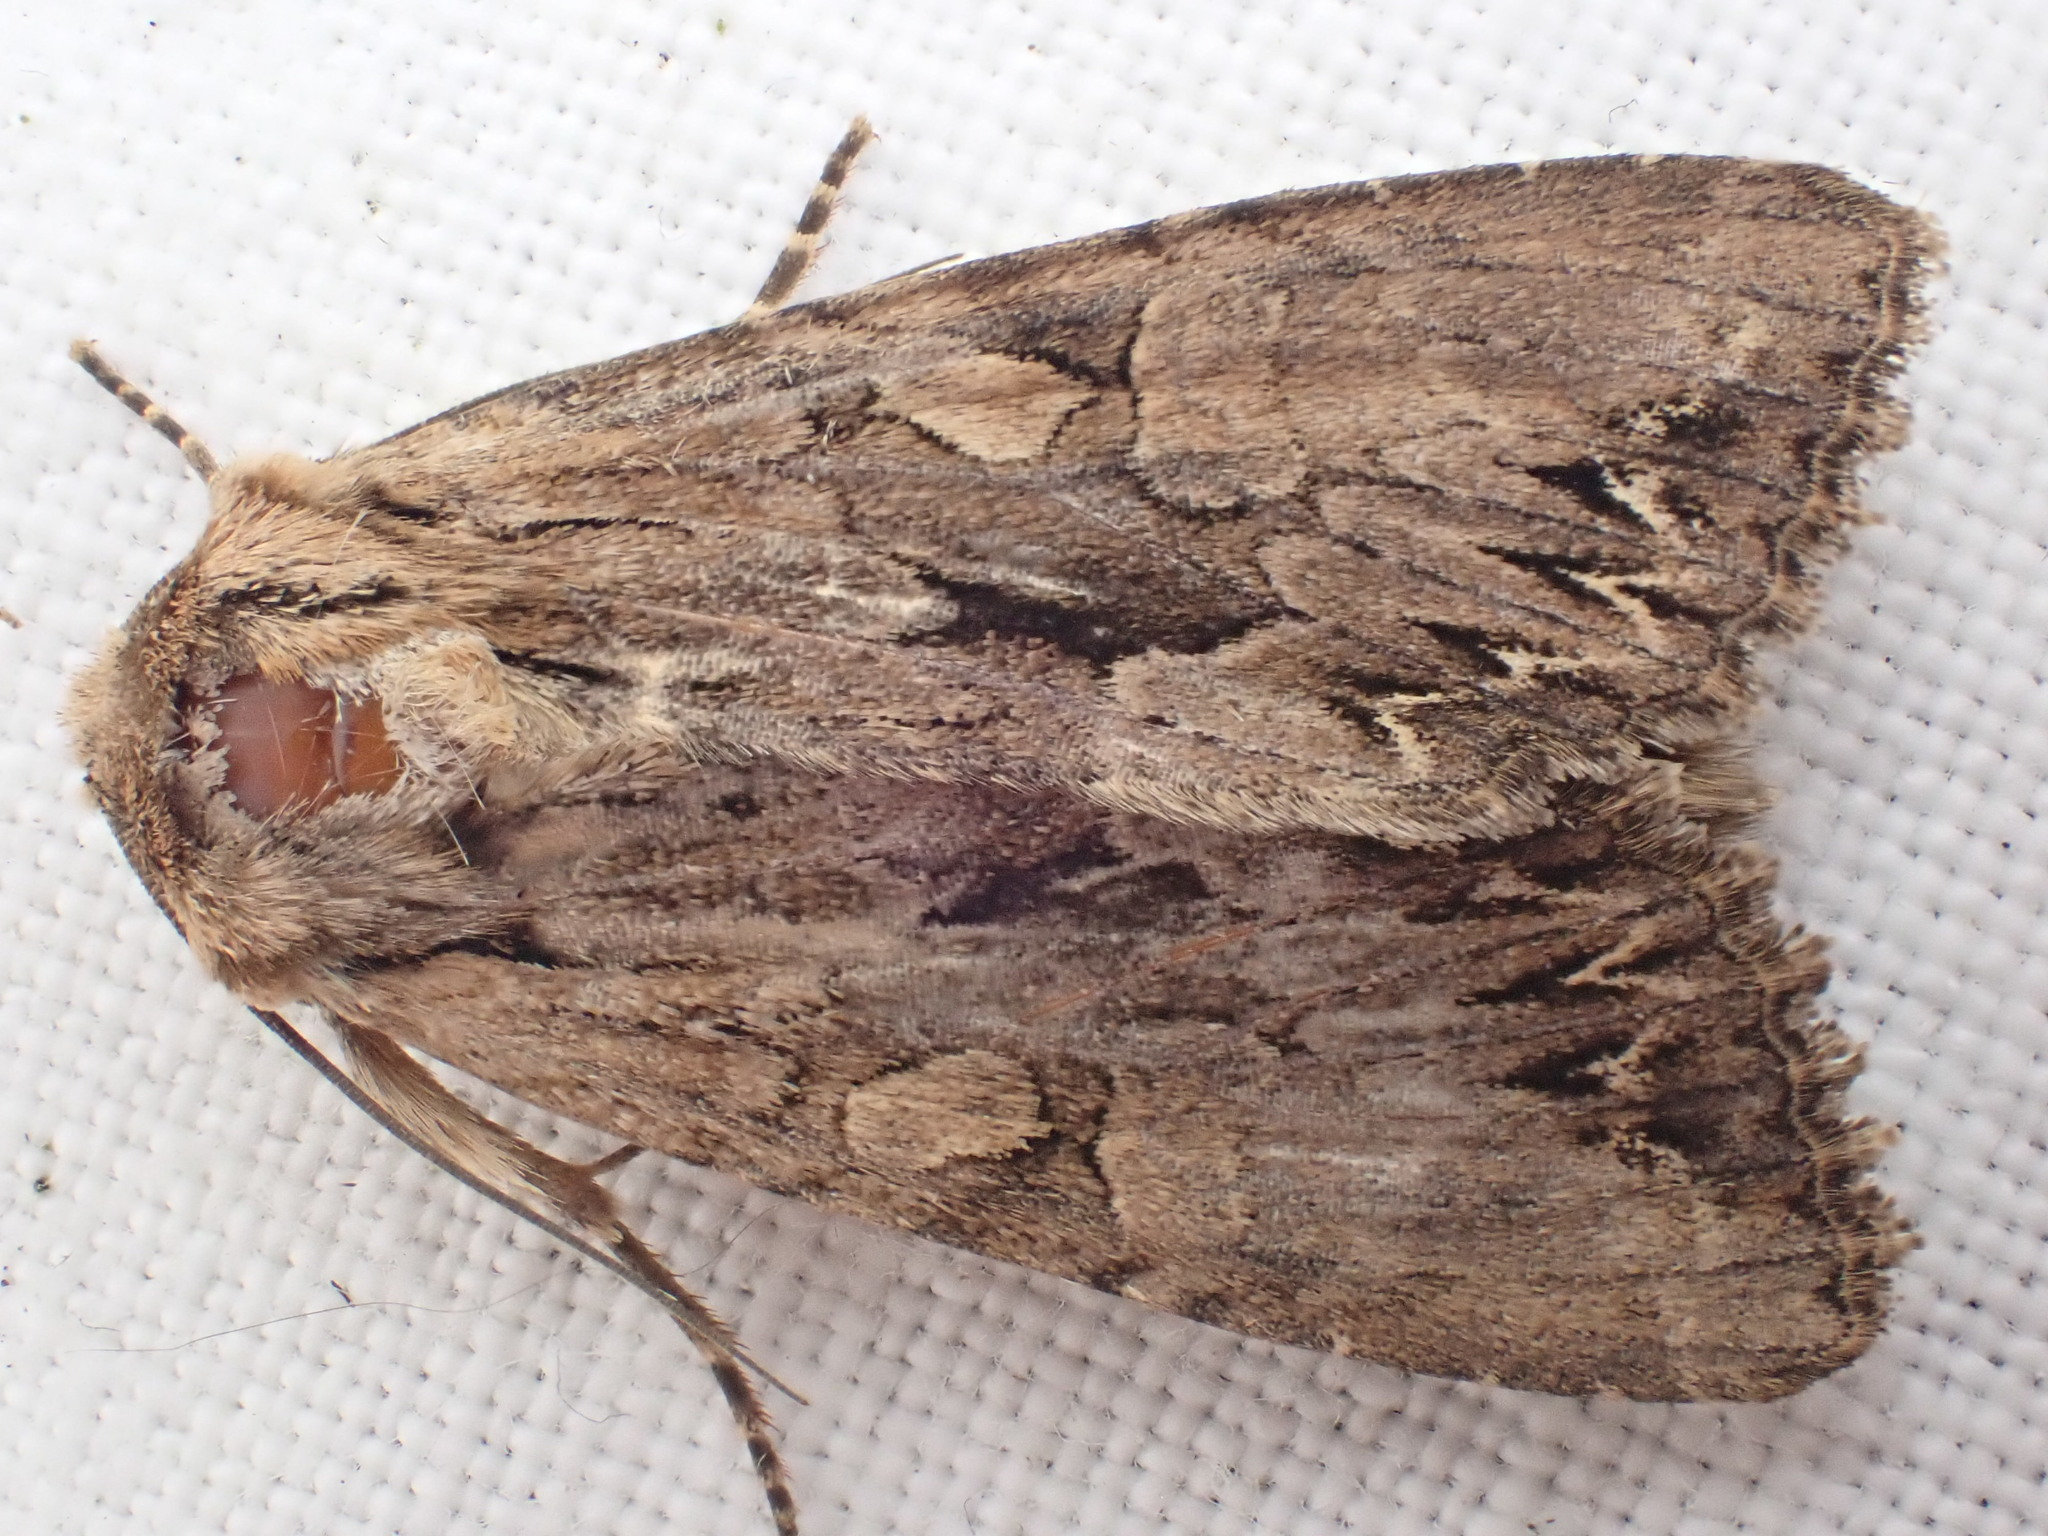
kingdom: Animalia
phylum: Arthropoda
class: Insecta
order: Lepidoptera
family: Noctuidae
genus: Apamea
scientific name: Apamea monoglypha
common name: Dark arches
